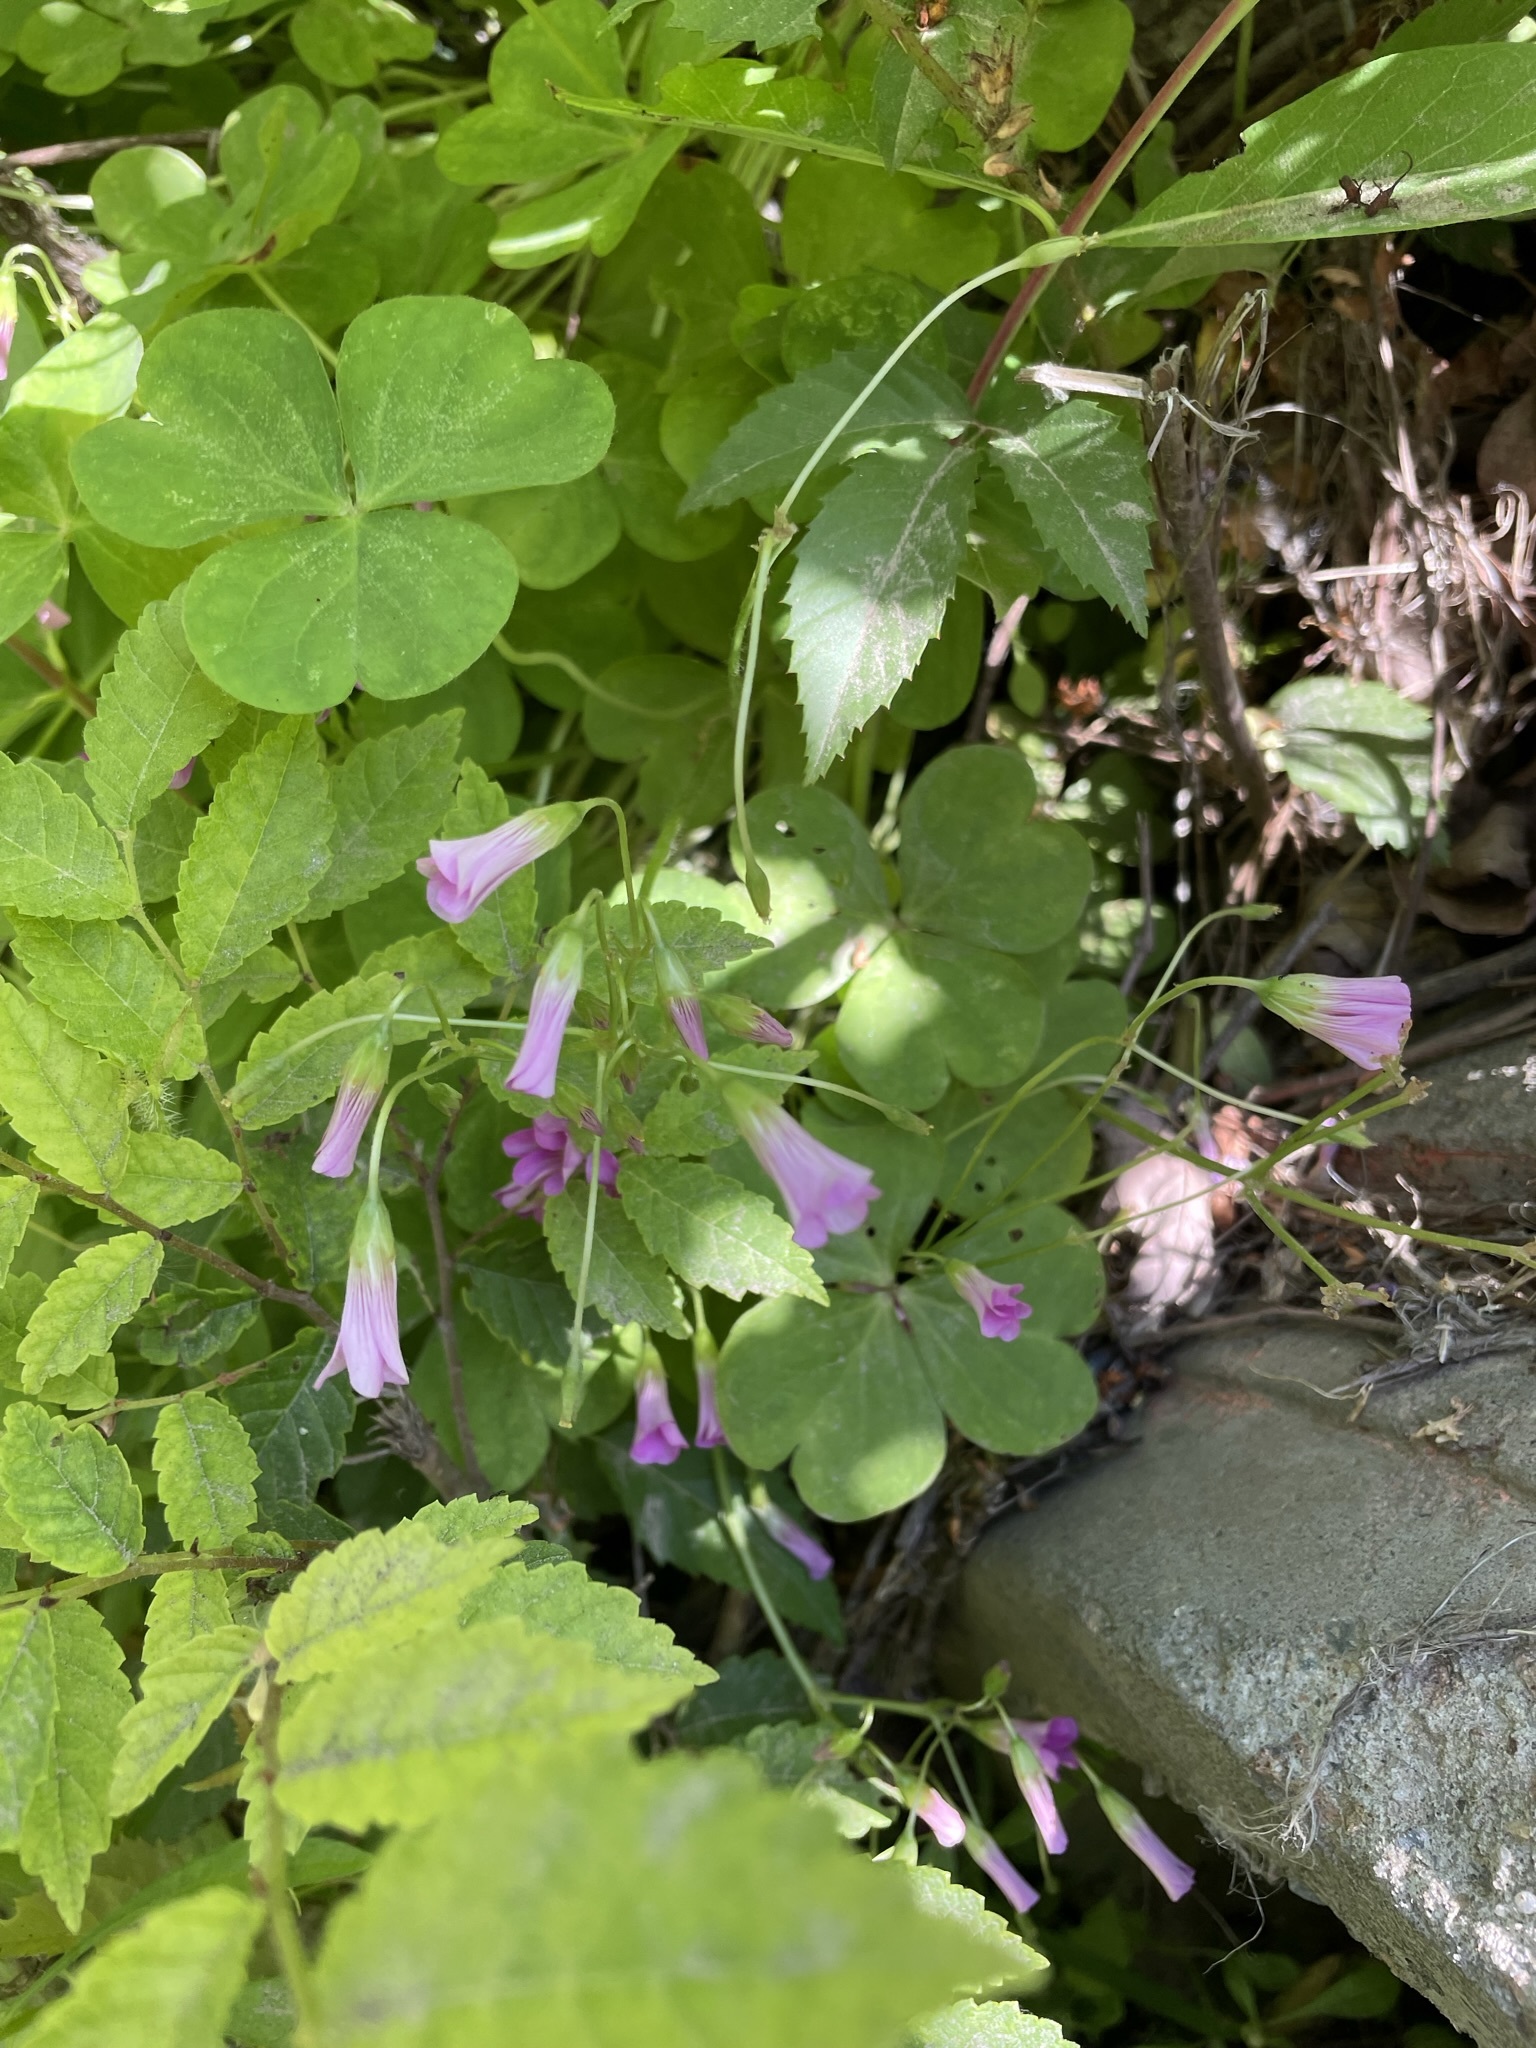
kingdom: Plantae
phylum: Tracheophyta
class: Magnoliopsida
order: Oxalidales
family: Oxalidaceae
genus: Oxalis
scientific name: Oxalis debilis
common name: Large-flowered pink-sorrel
